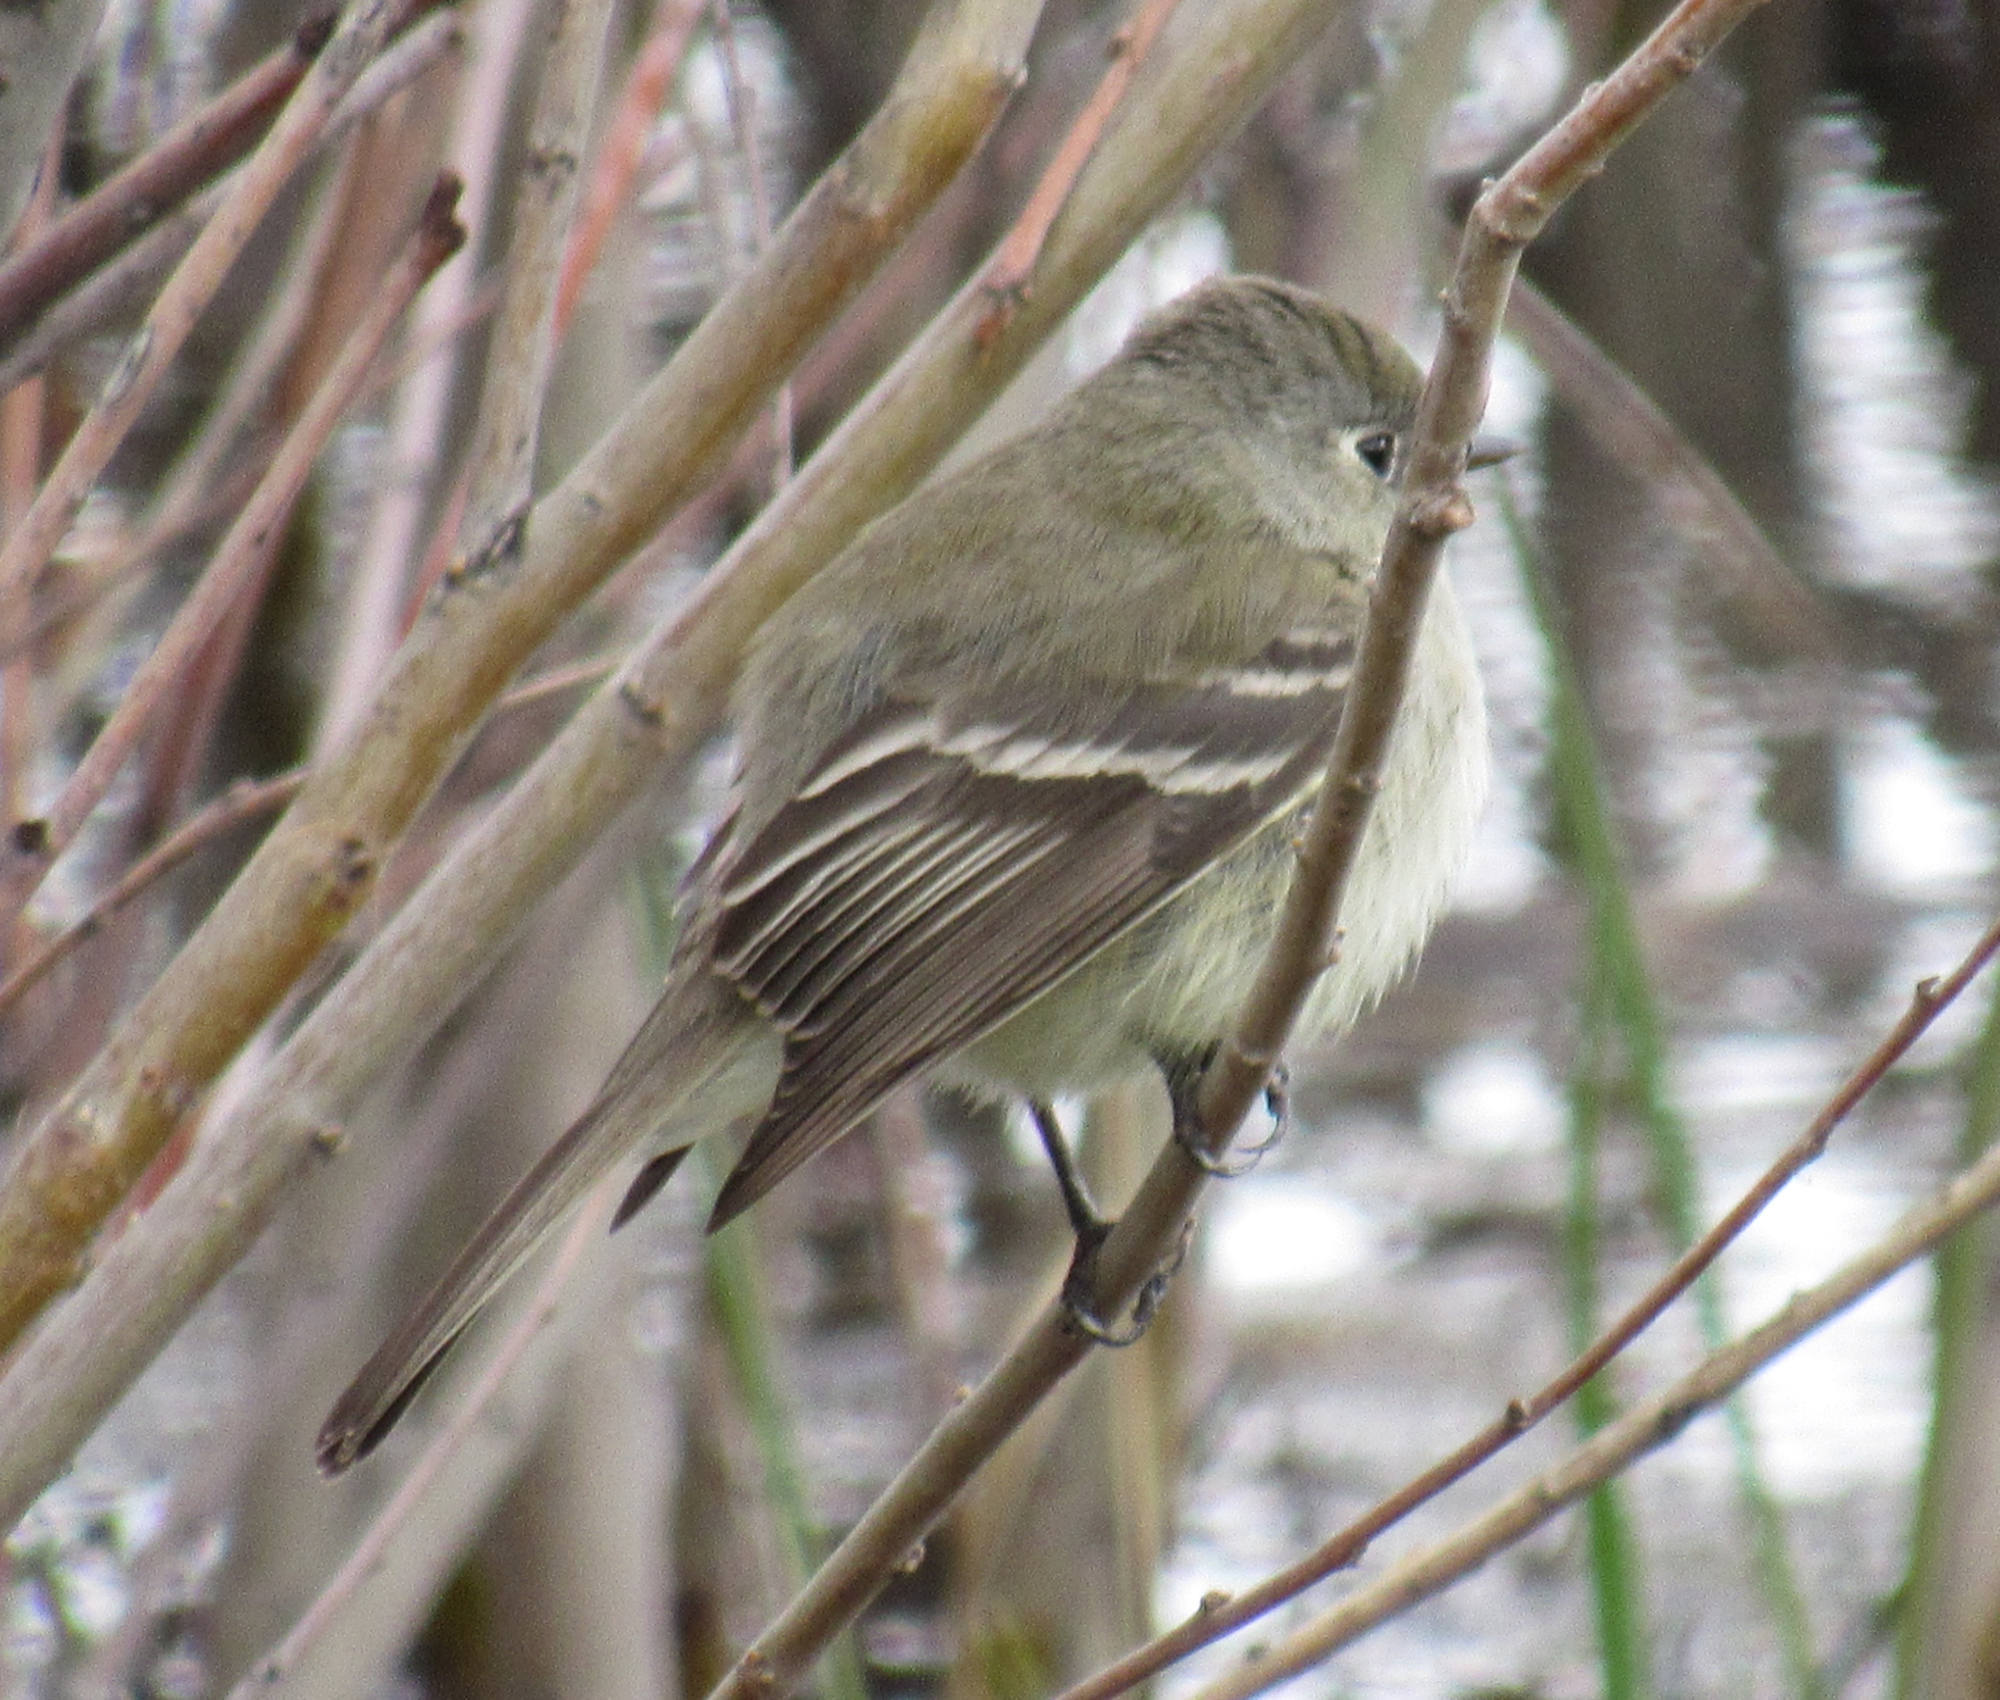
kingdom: Animalia
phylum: Chordata
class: Aves
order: Passeriformes
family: Tyrannidae
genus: Empidonax
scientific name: Empidonax hammondii
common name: Hammond's flycatcher
